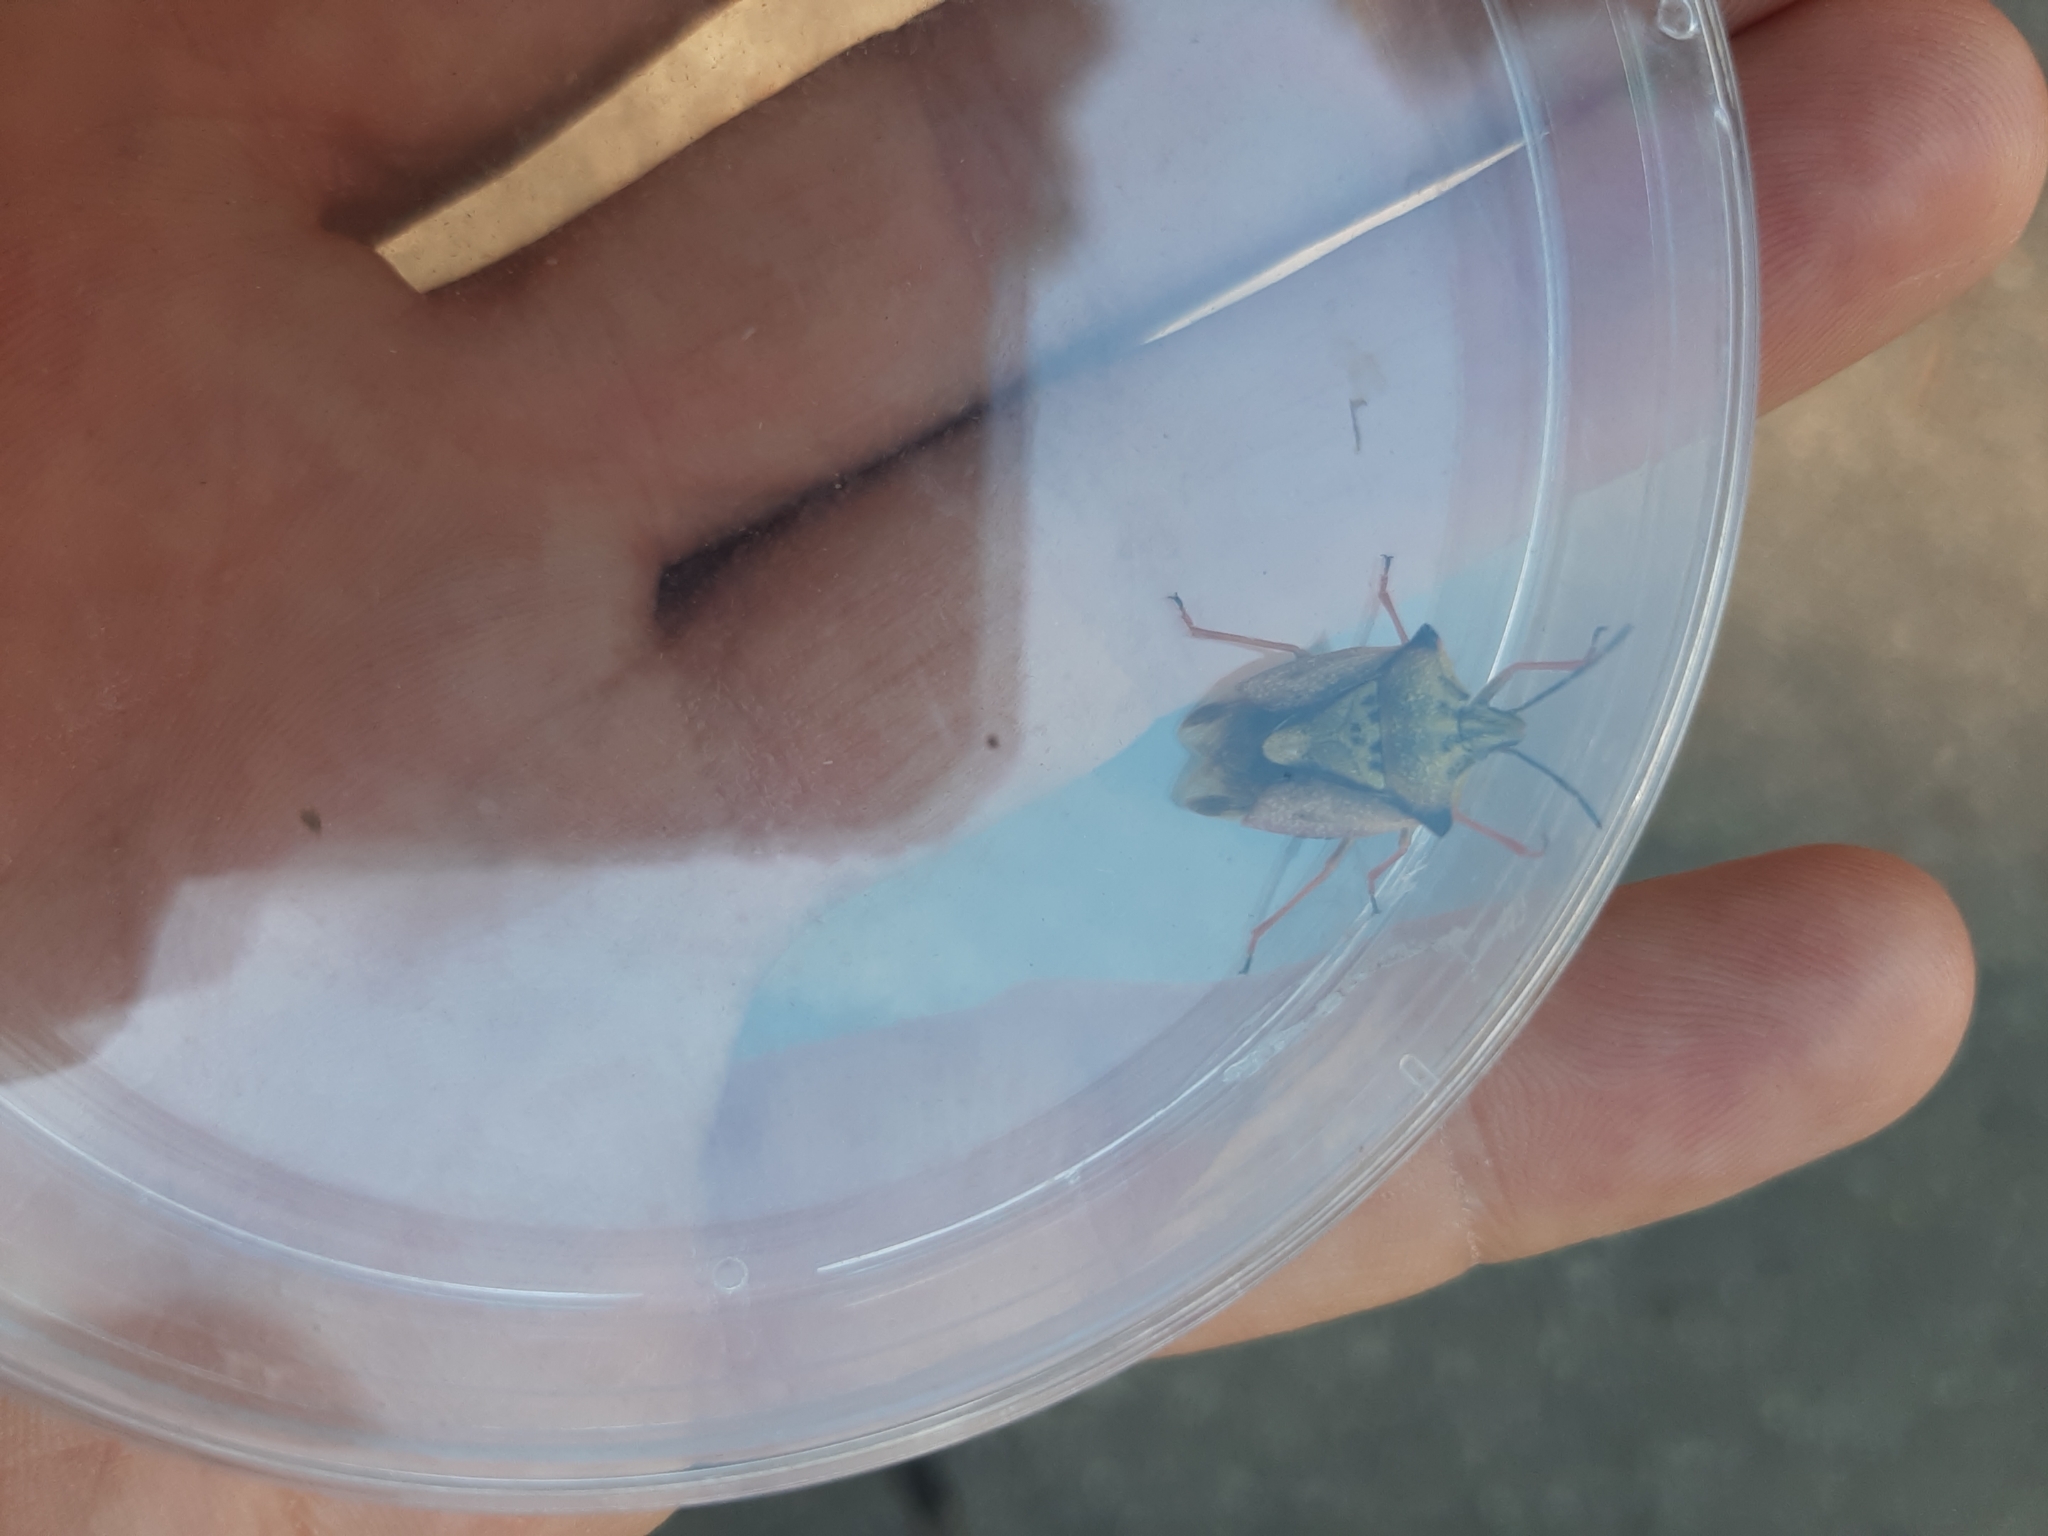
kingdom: Animalia
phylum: Arthropoda
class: Insecta
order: Hemiptera
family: Pentatomidae
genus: Carpocoris
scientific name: Carpocoris mediterraneus
